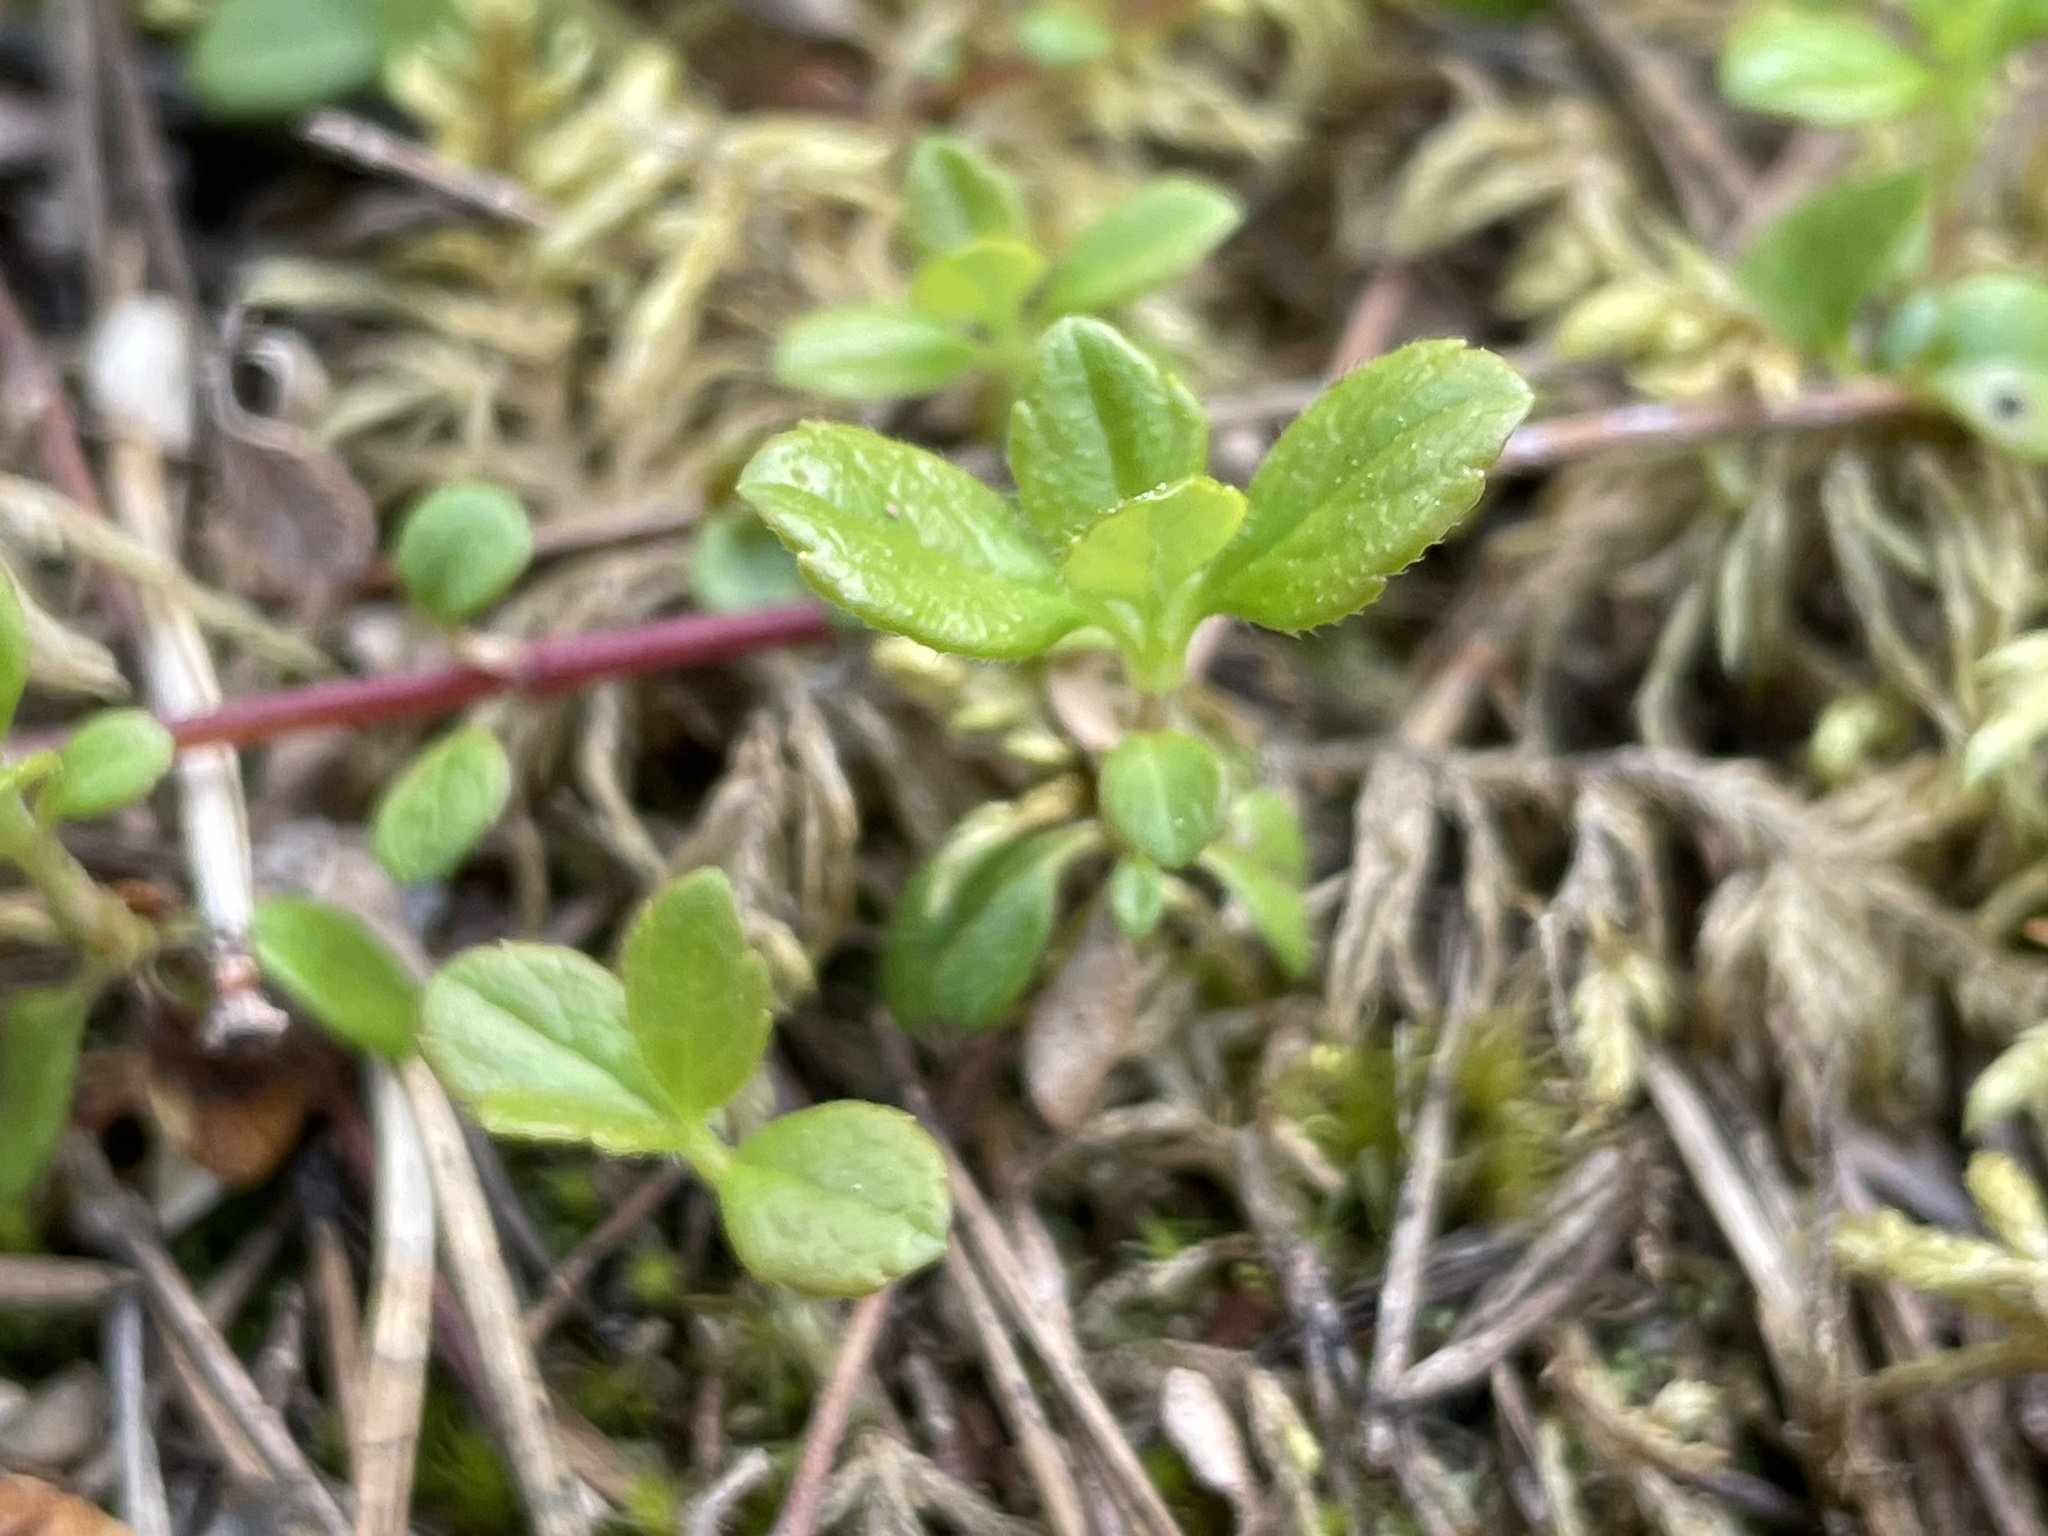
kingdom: Plantae
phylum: Tracheophyta
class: Magnoliopsida
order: Dipsacales
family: Caprifoliaceae
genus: Linnaea
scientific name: Linnaea borealis
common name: Twinflower
